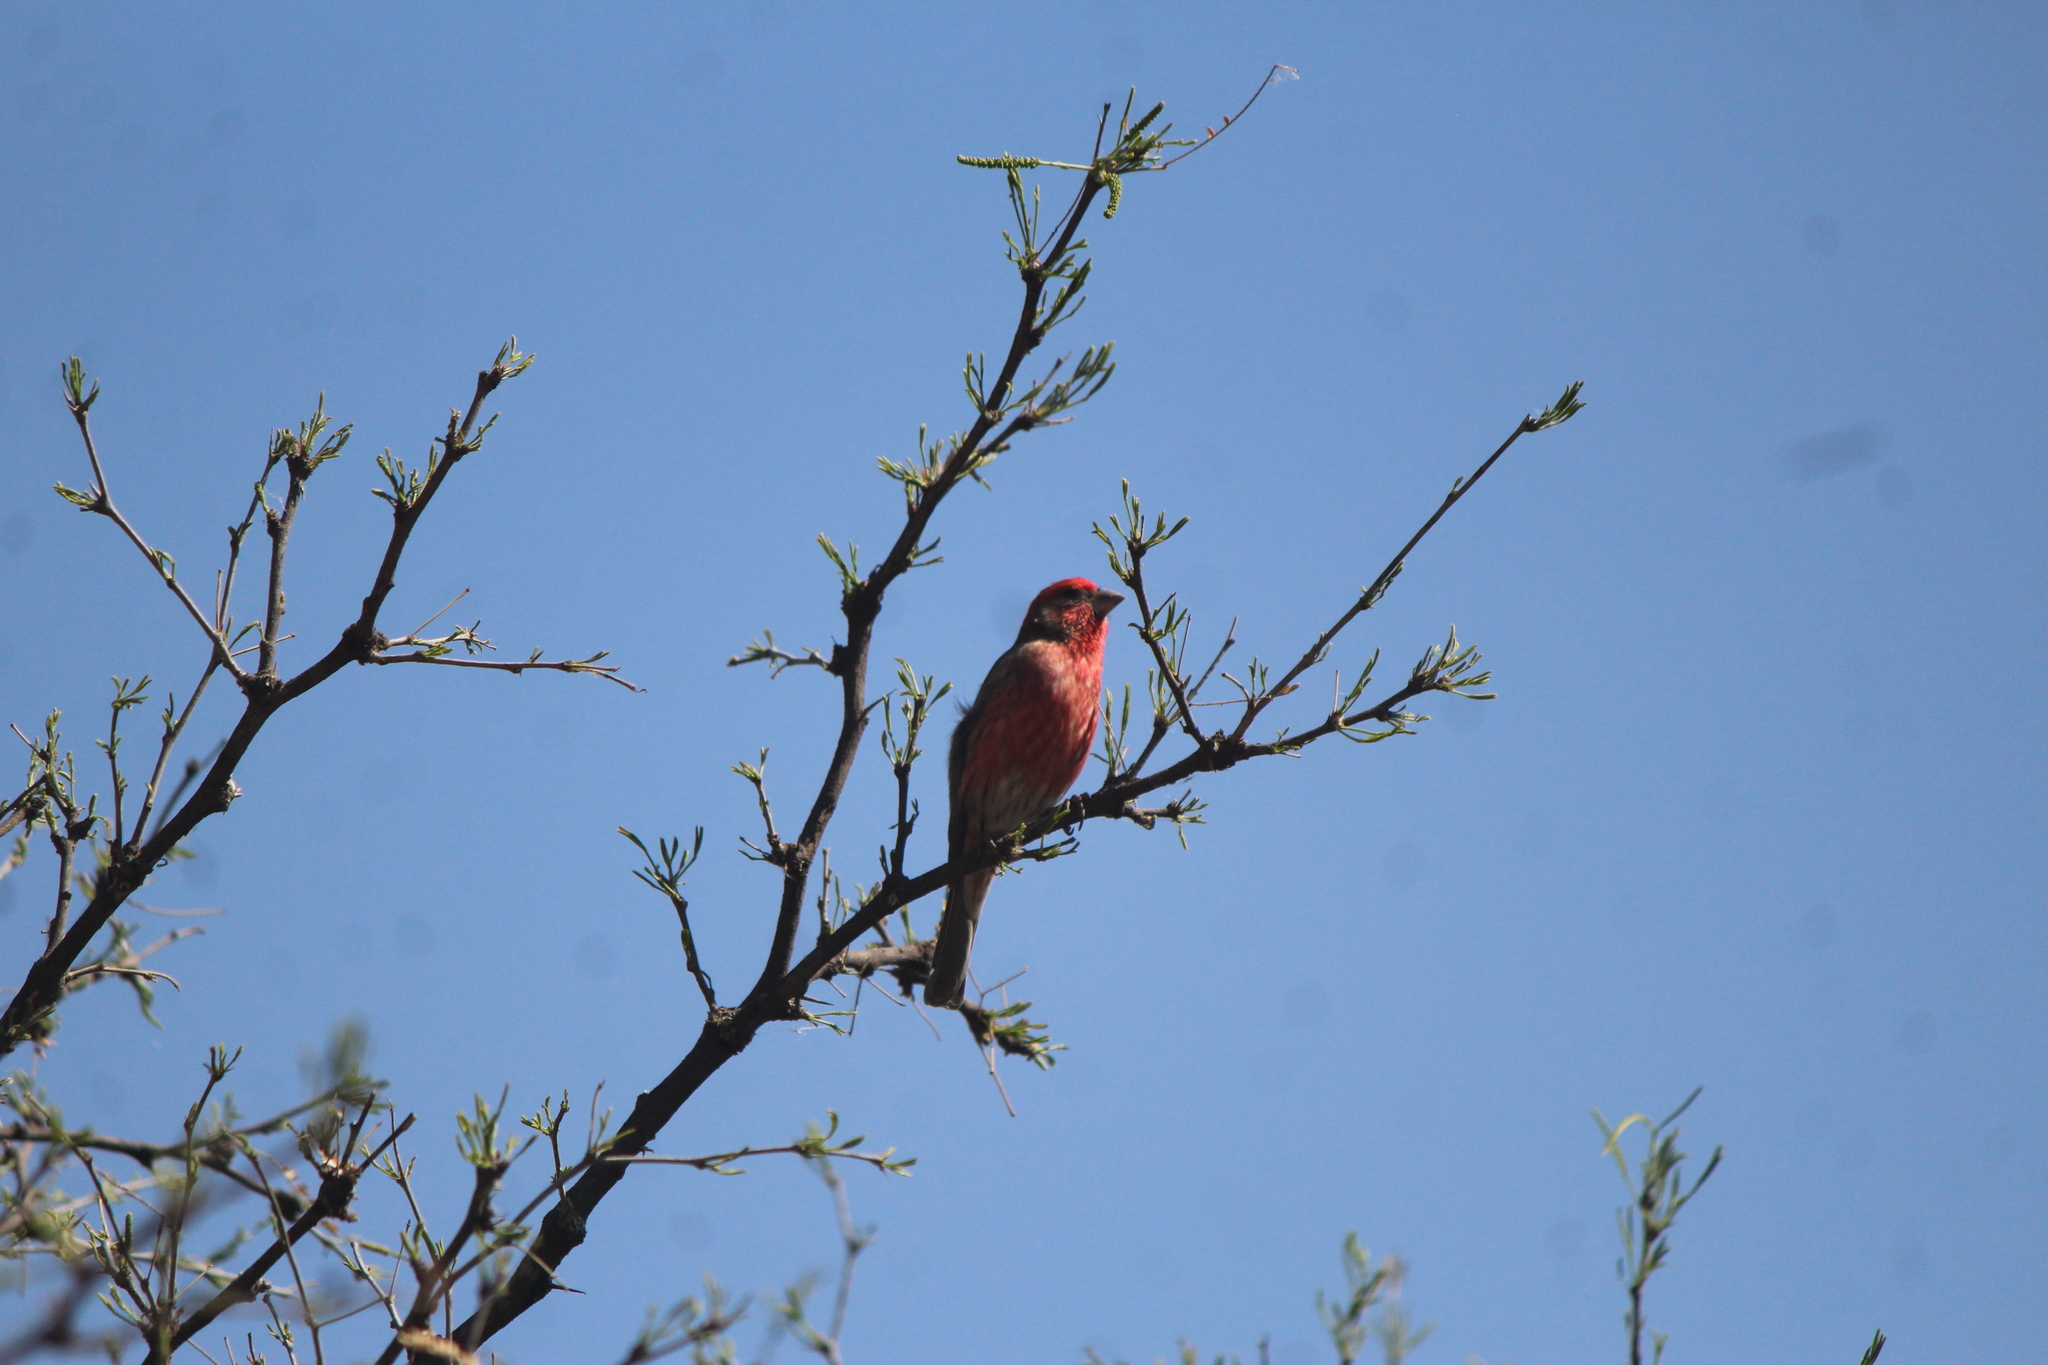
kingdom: Animalia
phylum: Chordata
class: Aves
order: Passeriformes
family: Fringillidae
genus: Haemorhous
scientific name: Haemorhous mexicanus
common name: House finch
